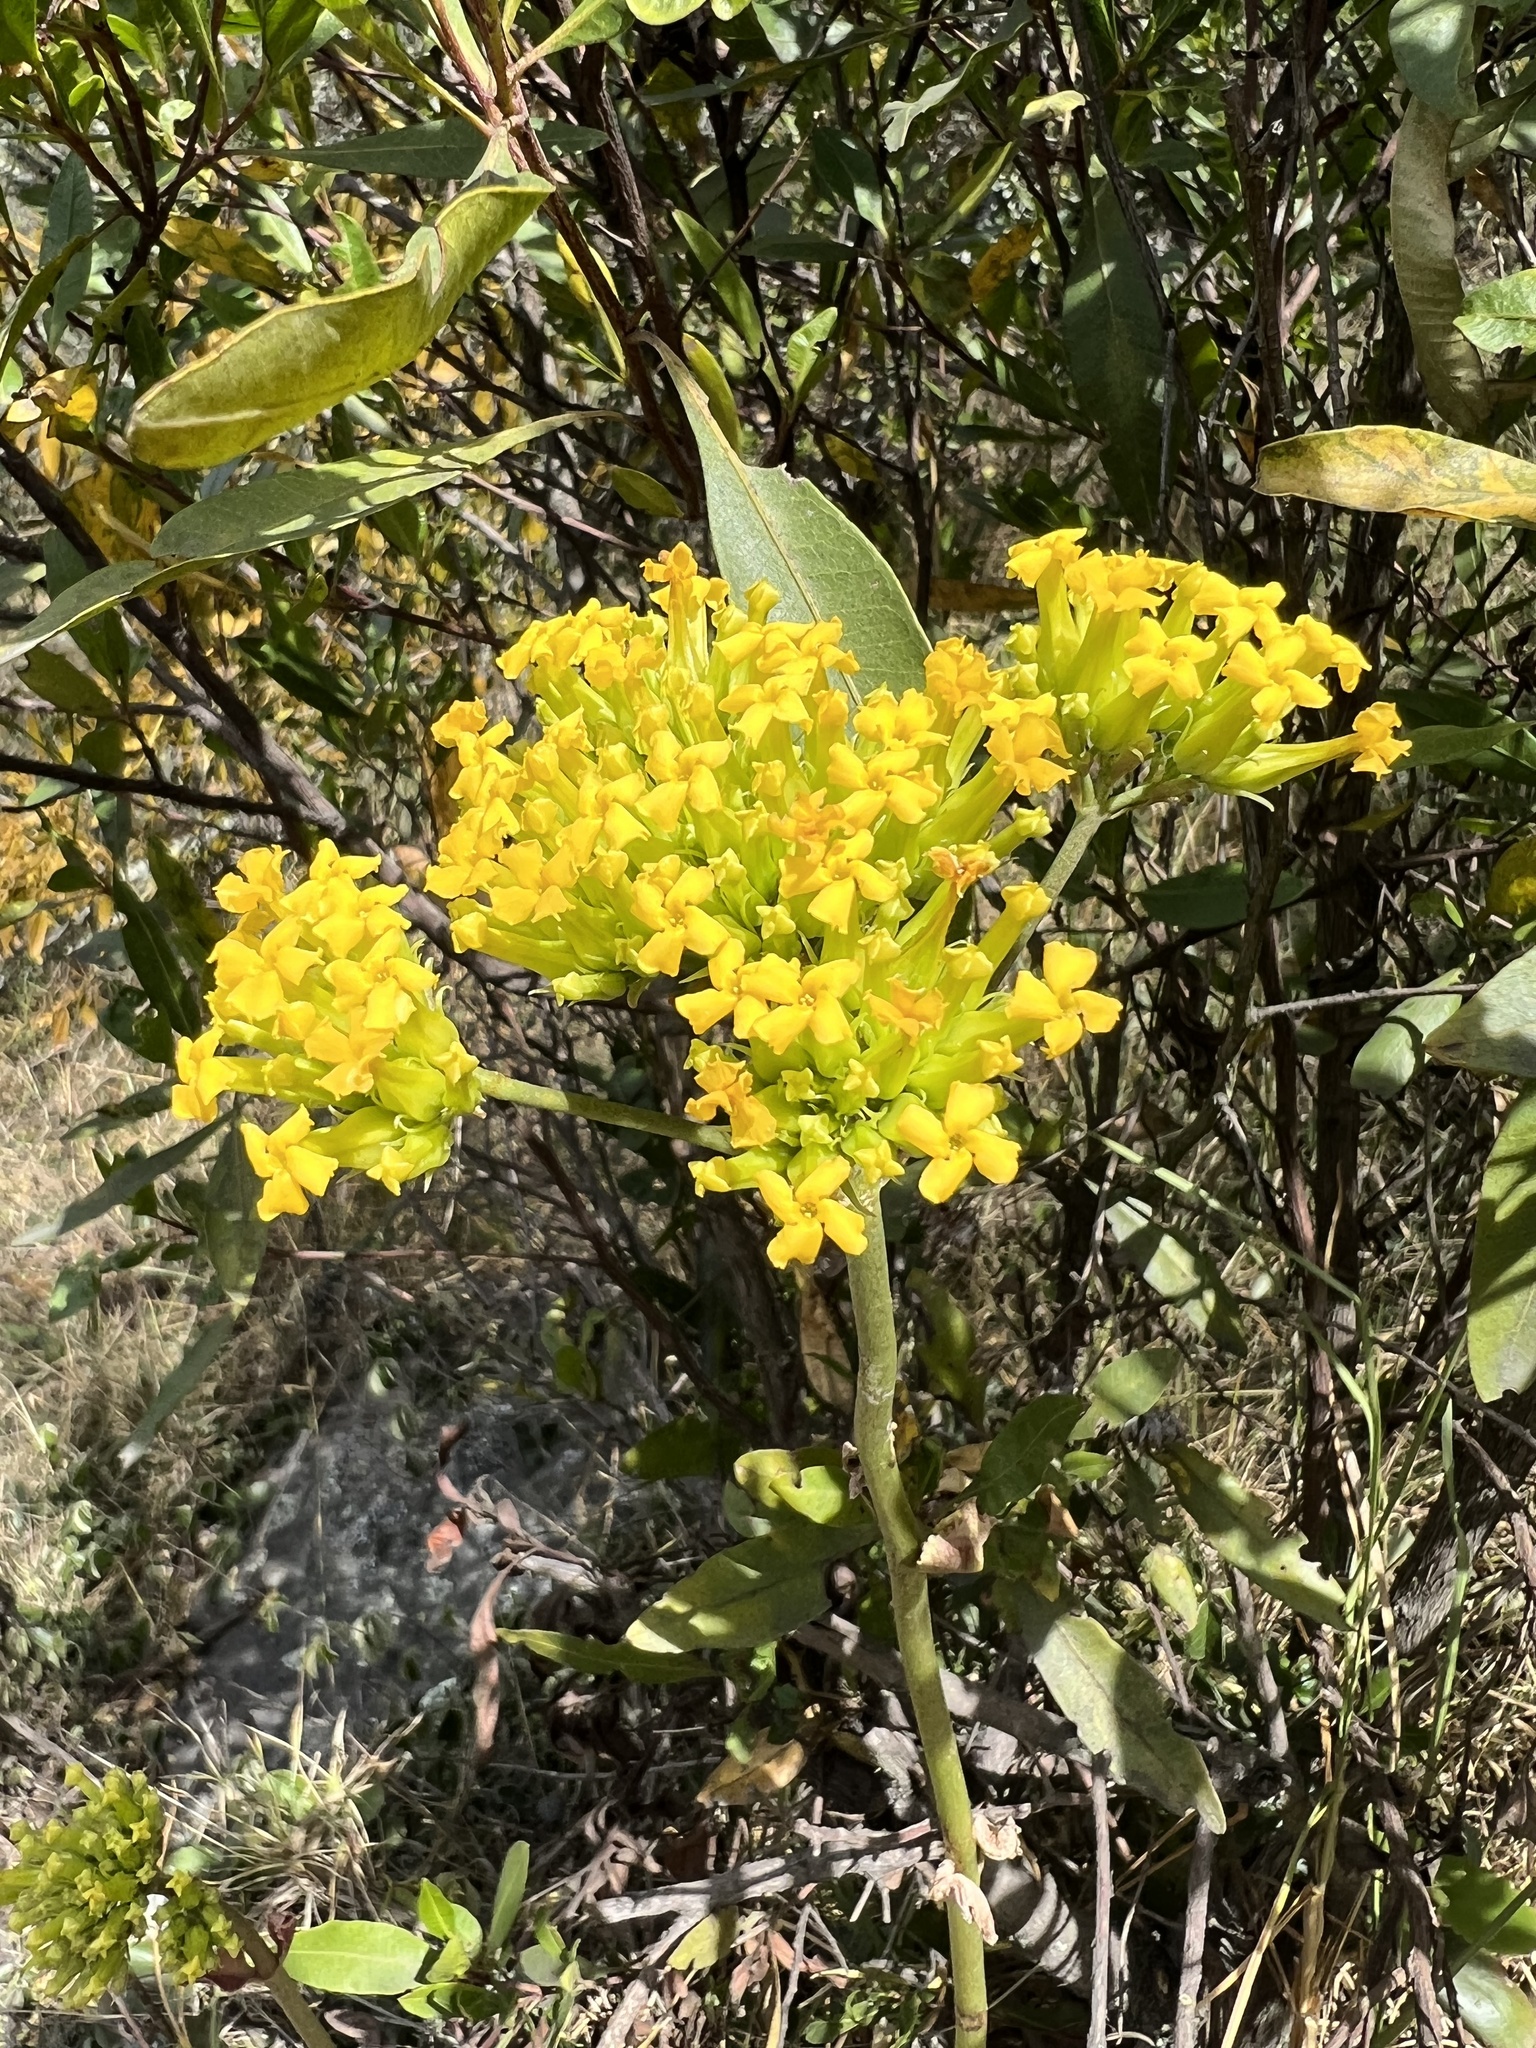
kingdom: Plantae
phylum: Tracheophyta
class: Magnoliopsida
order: Saxifragales
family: Crassulaceae
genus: Kalanchoe
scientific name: Kalanchoe densiflora
